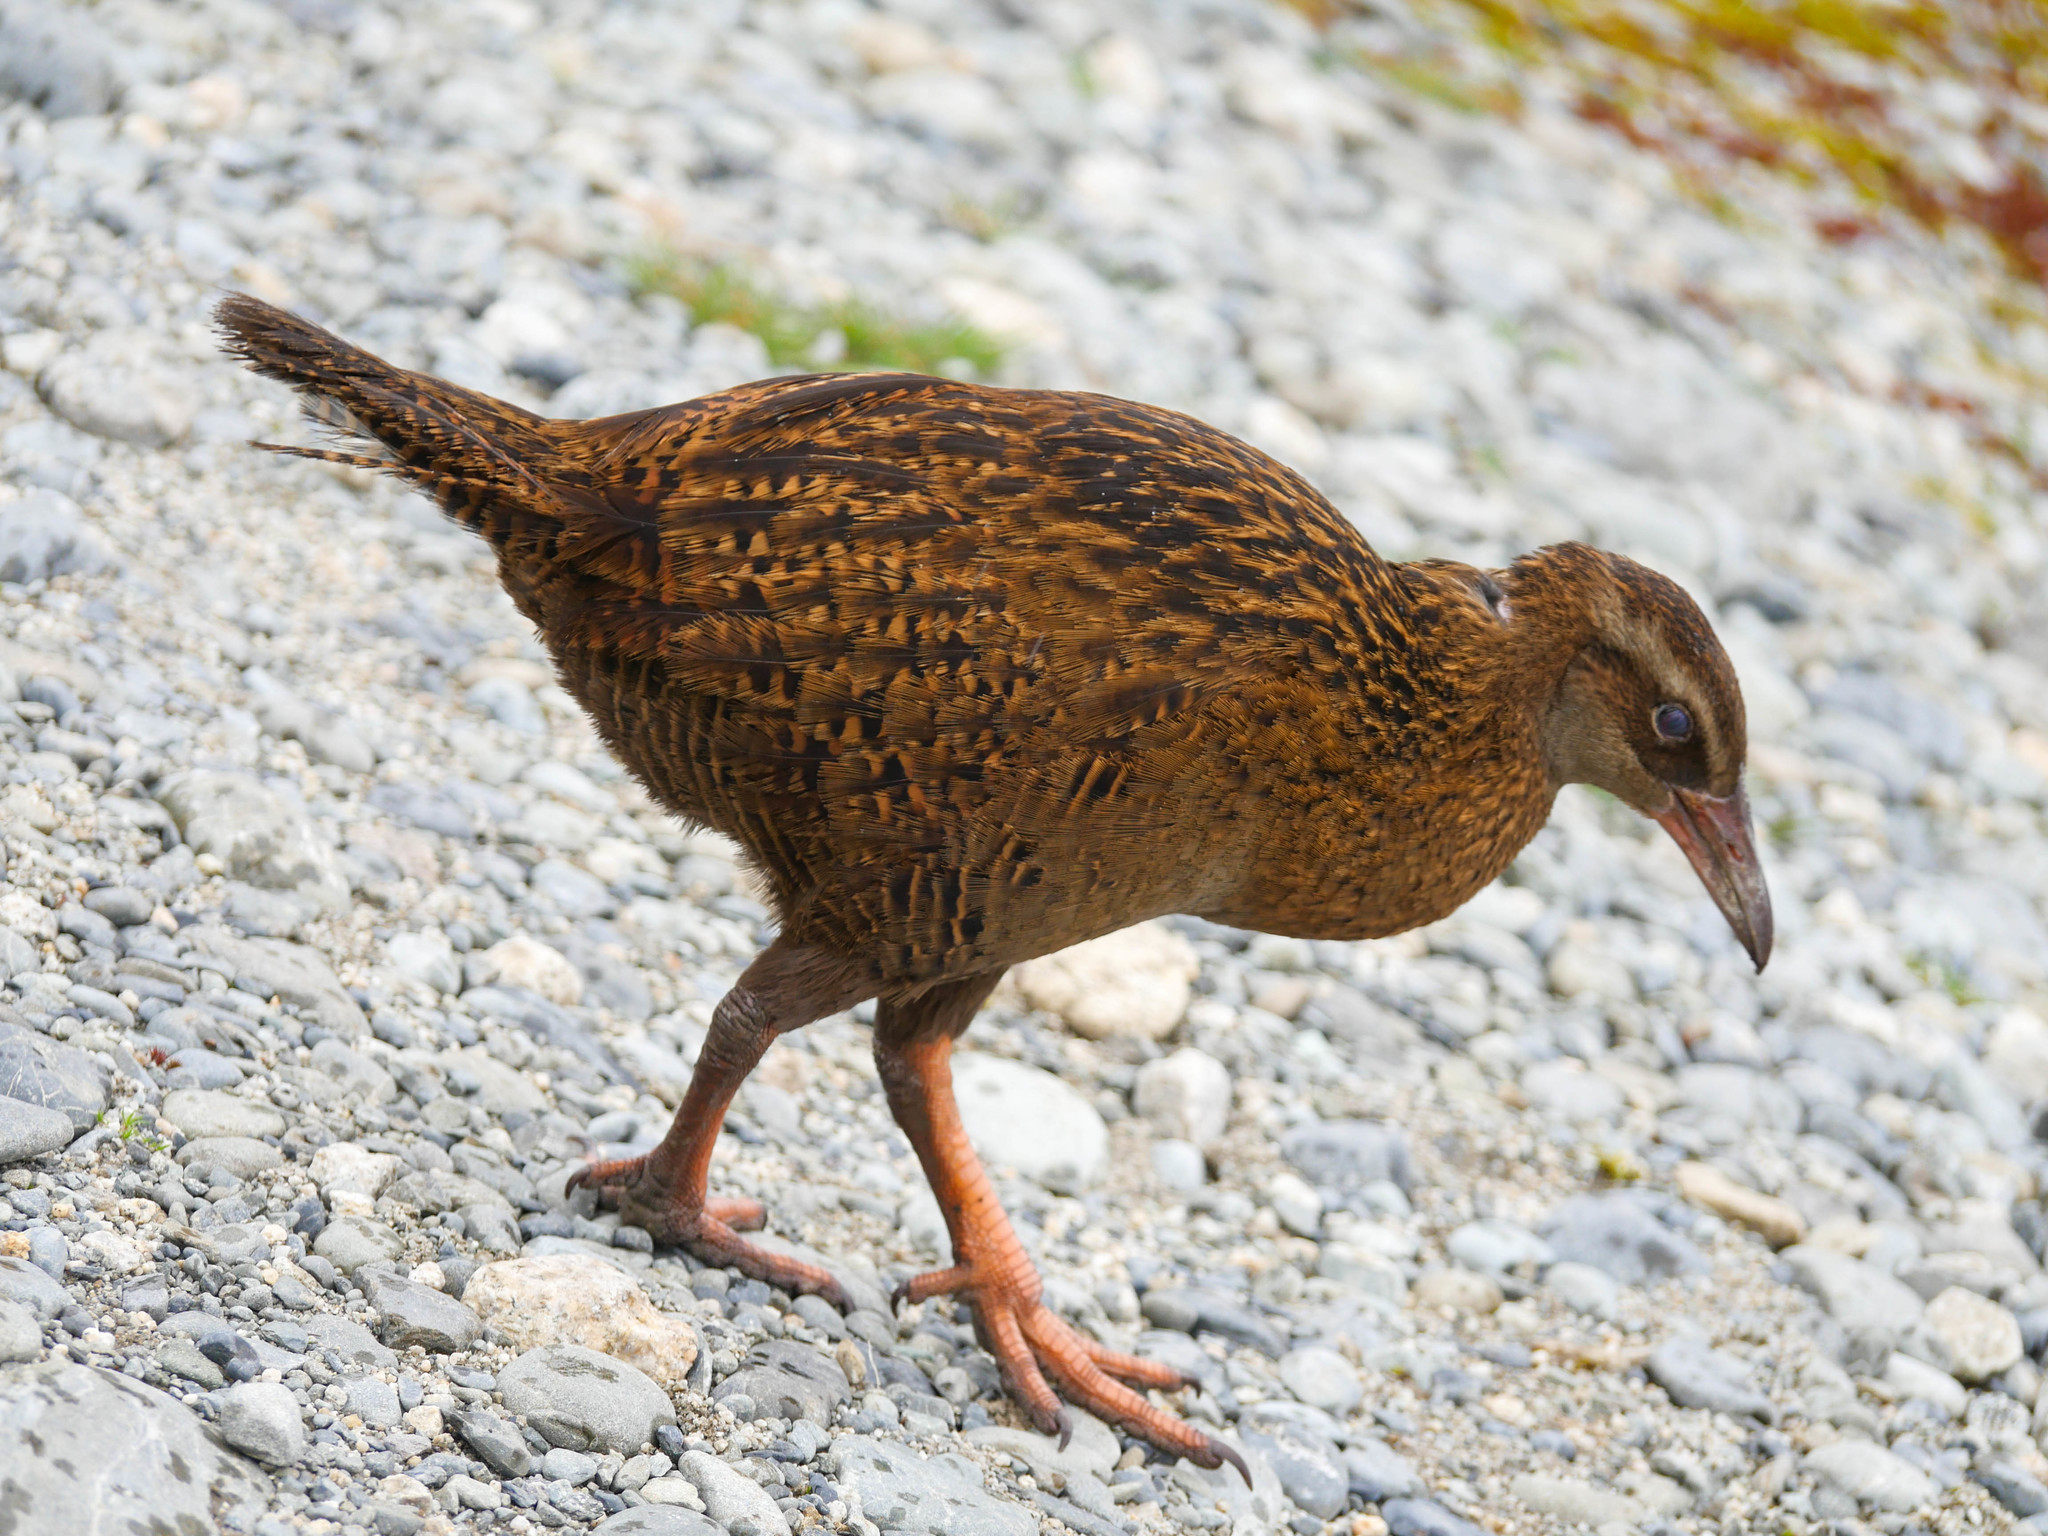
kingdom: Animalia
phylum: Chordata
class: Aves
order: Gruiformes
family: Rallidae
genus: Gallirallus
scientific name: Gallirallus australis
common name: Weka
